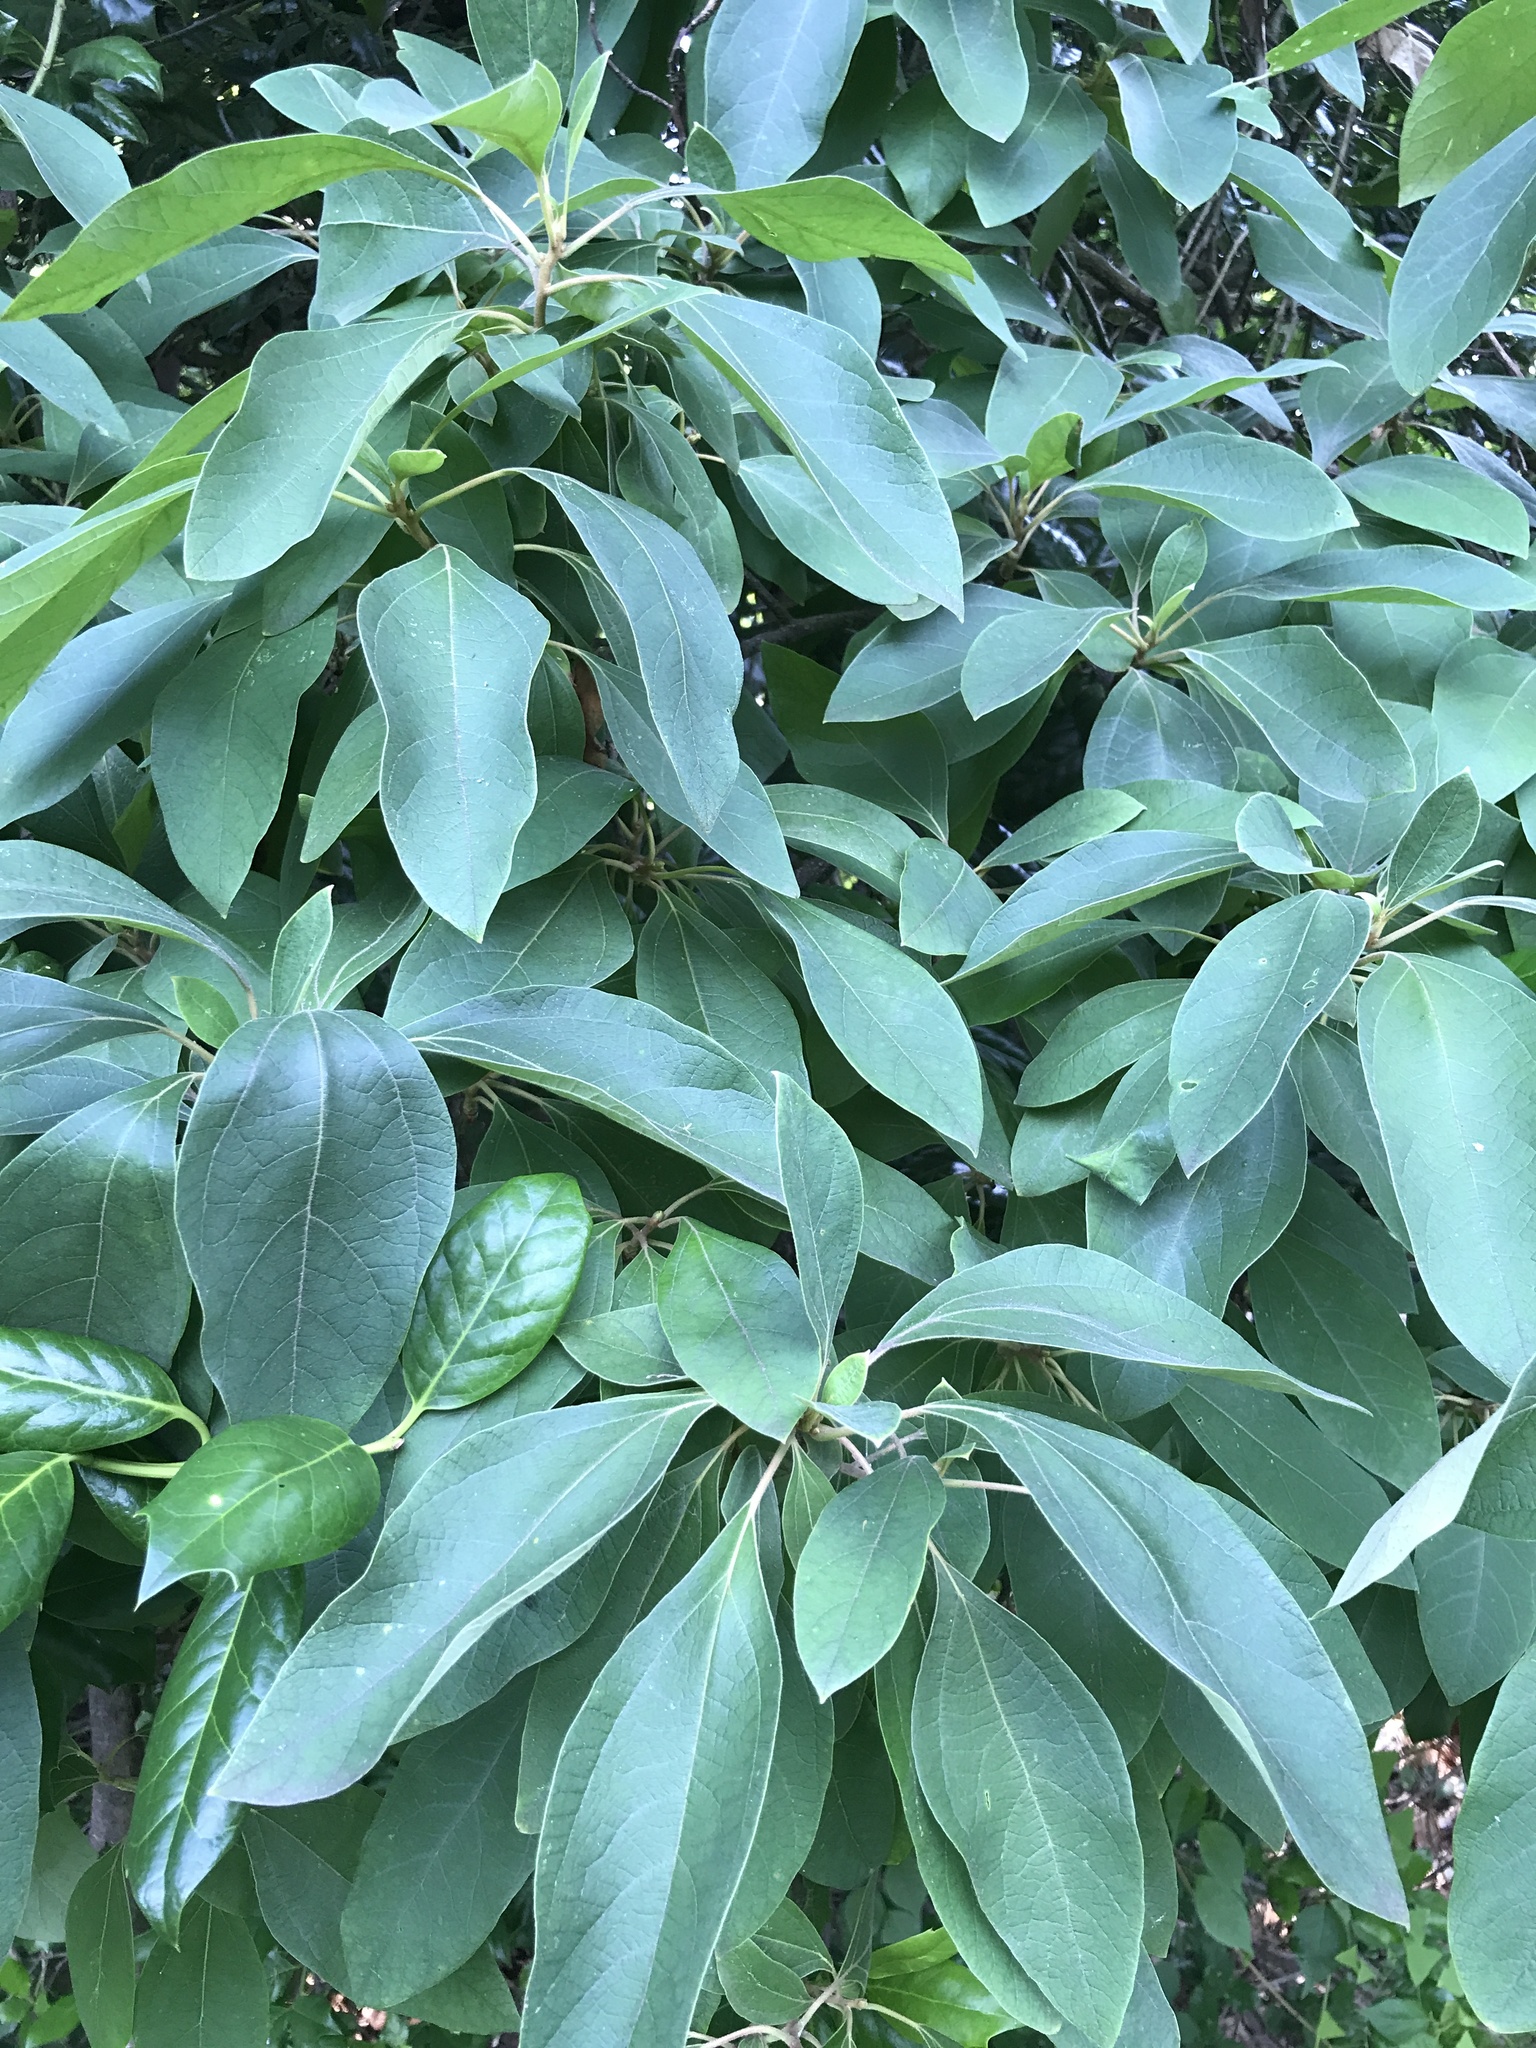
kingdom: Plantae
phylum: Tracheophyta
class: Magnoliopsida
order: Laurales
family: Lauraceae
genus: Sassafras
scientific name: Sassafras albidum
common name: Sassafras
